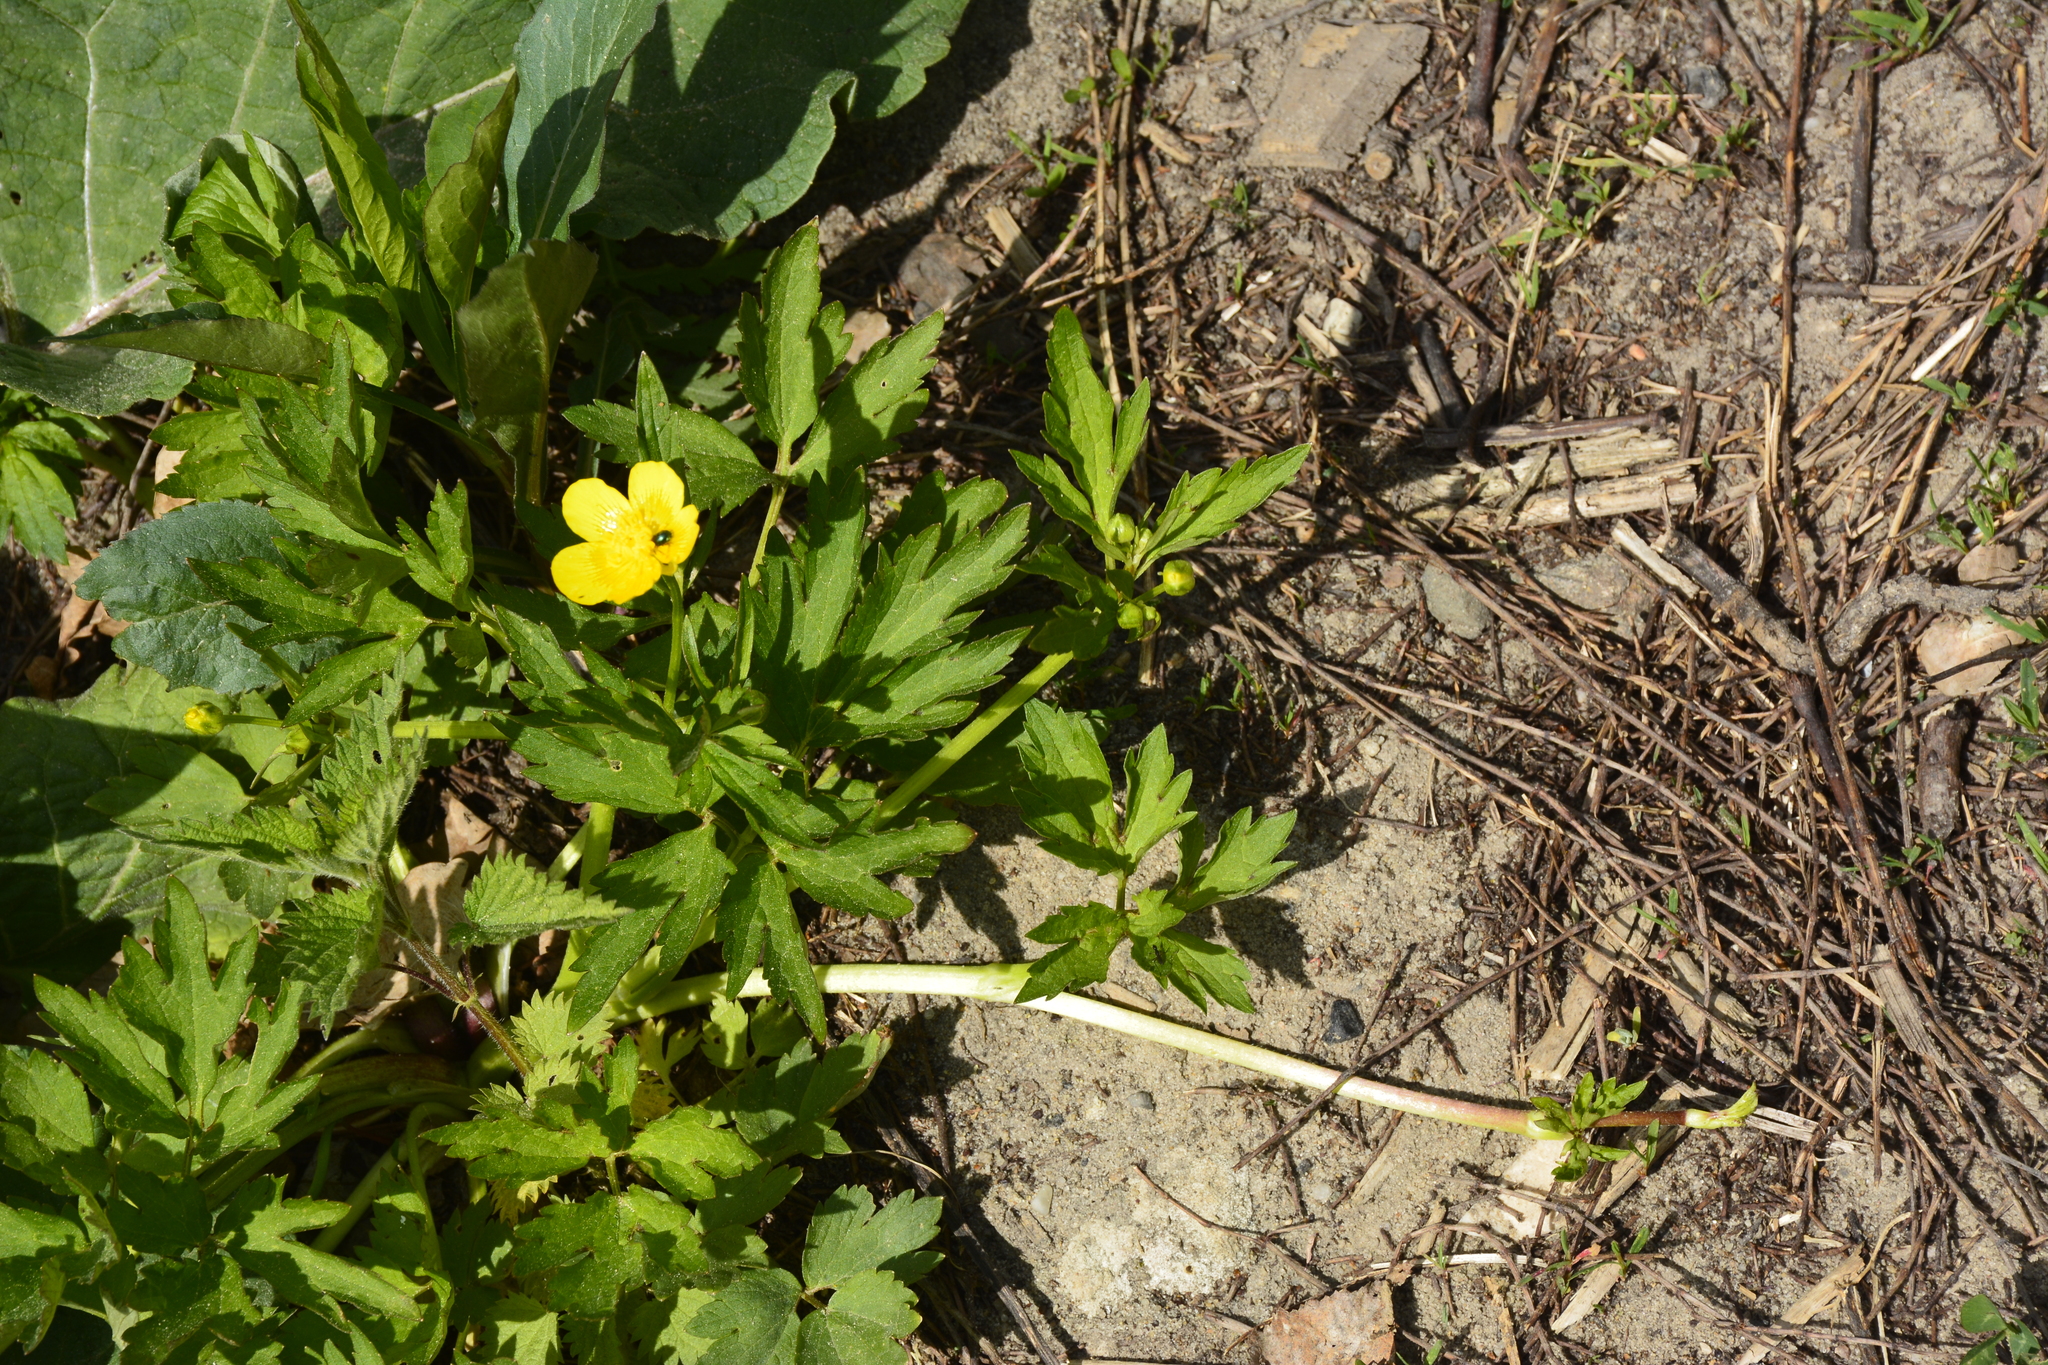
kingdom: Plantae
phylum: Tracheophyta
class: Magnoliopsida
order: Ranunculales
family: Ranunculaceae
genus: Ranunculus
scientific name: Ranunculus repens
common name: Creeping buttercup
